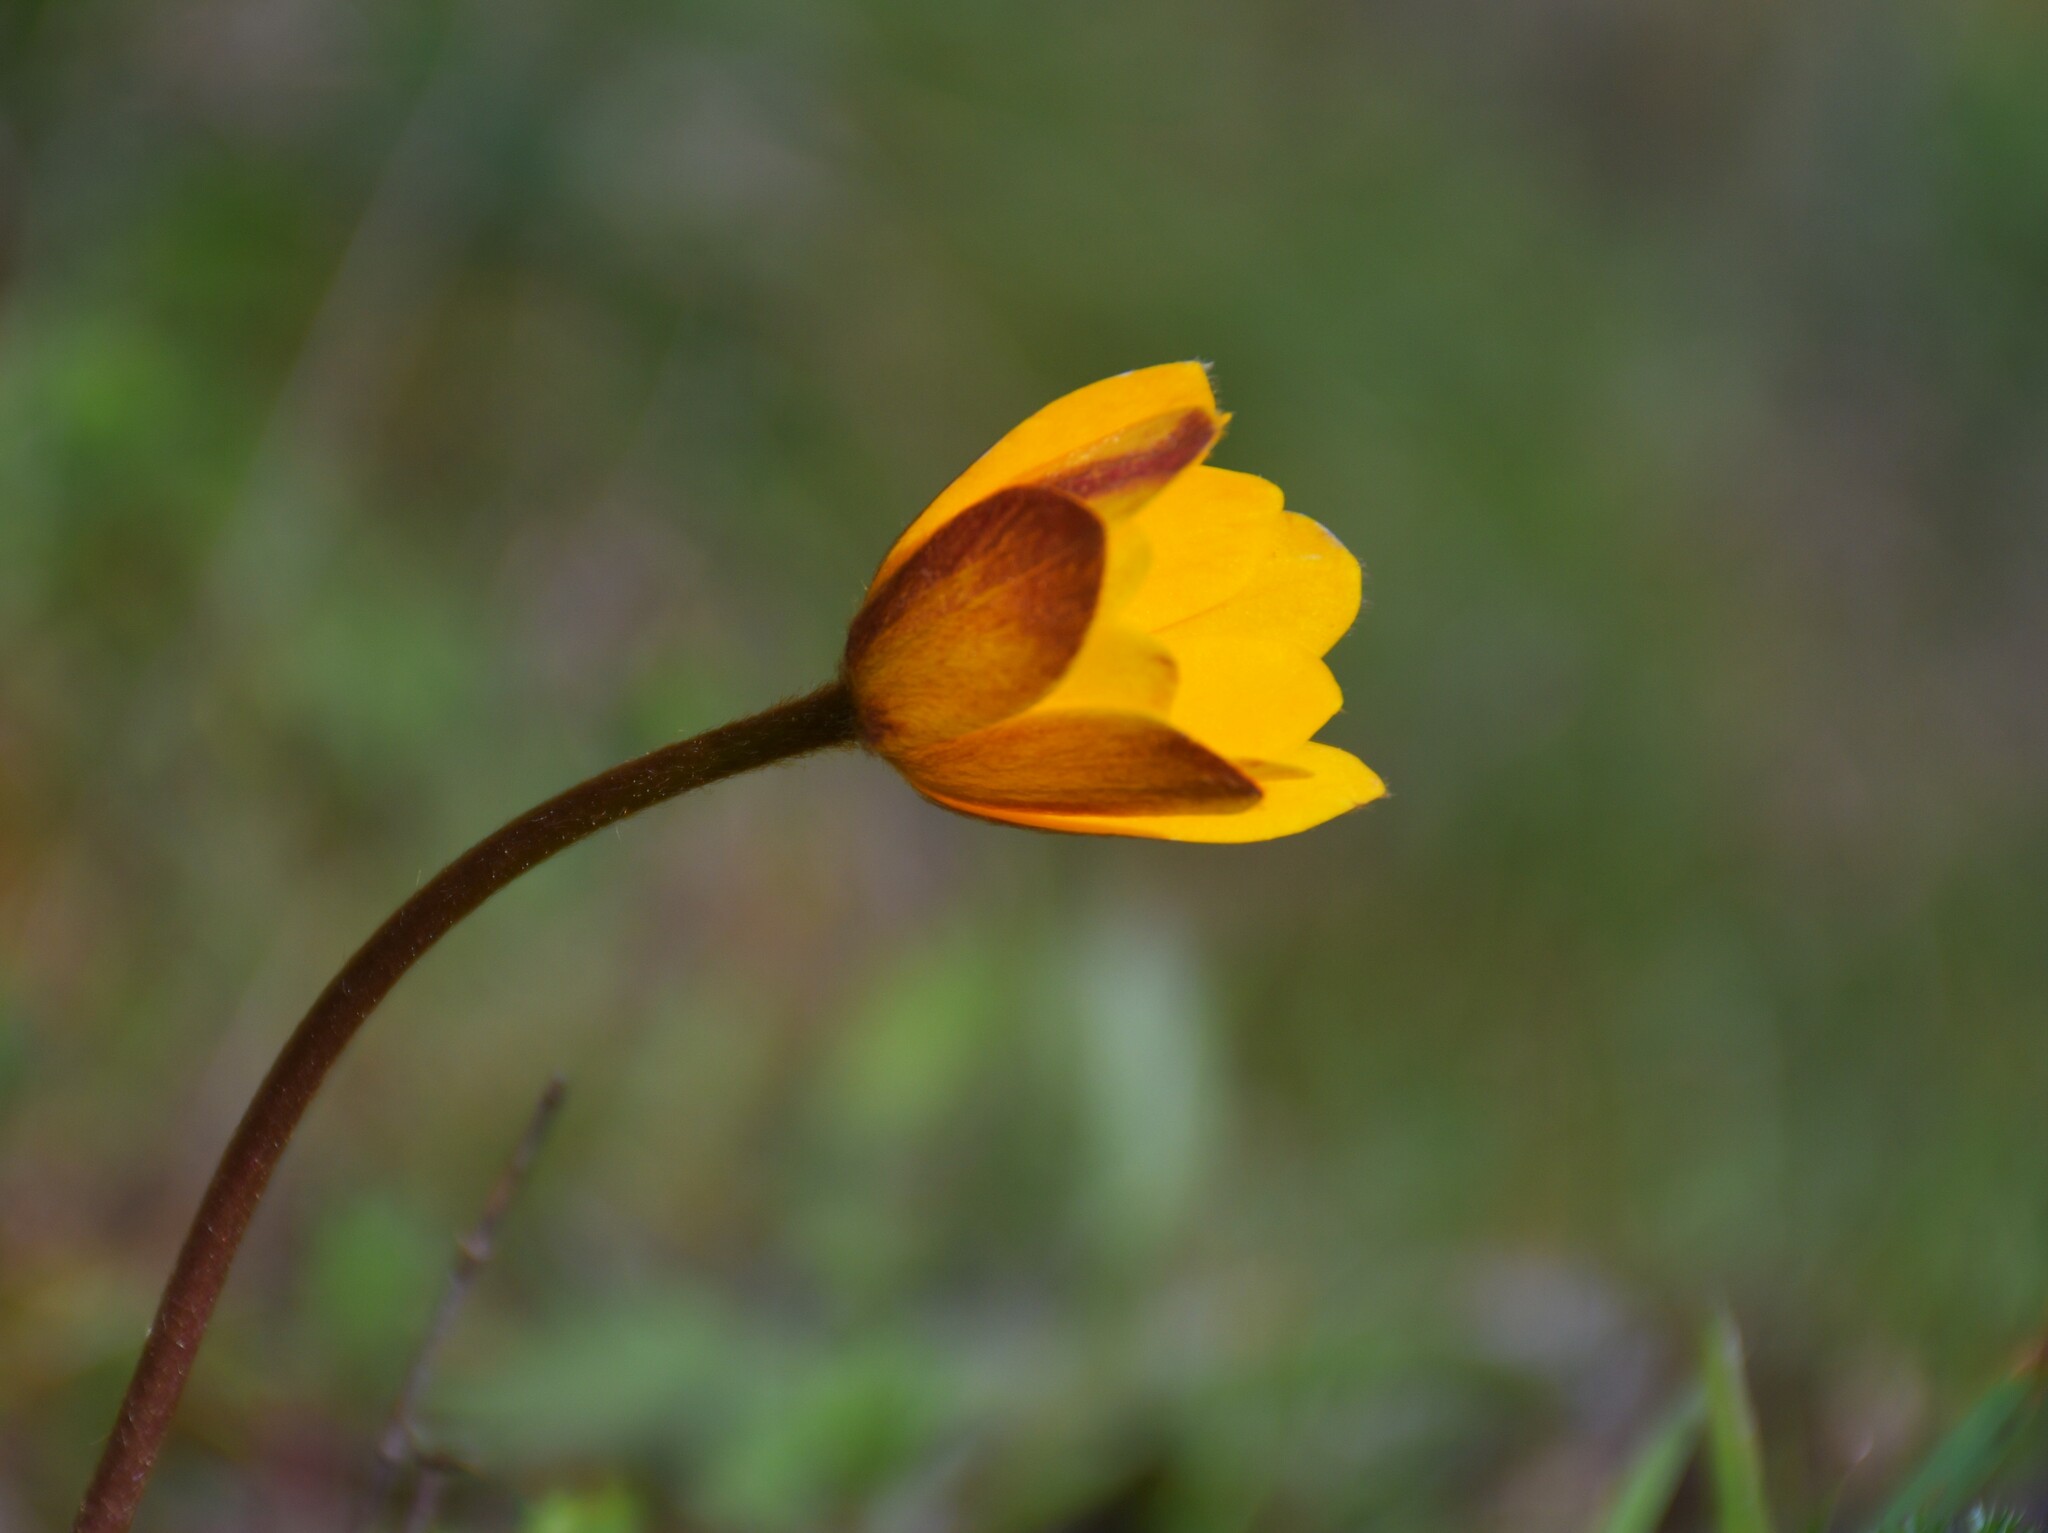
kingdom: Plantae
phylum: Tracheophyta
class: Magnoliopsida
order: Ranunculales
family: Ranunculaceae
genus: Anemone
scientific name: Anemone palmata
